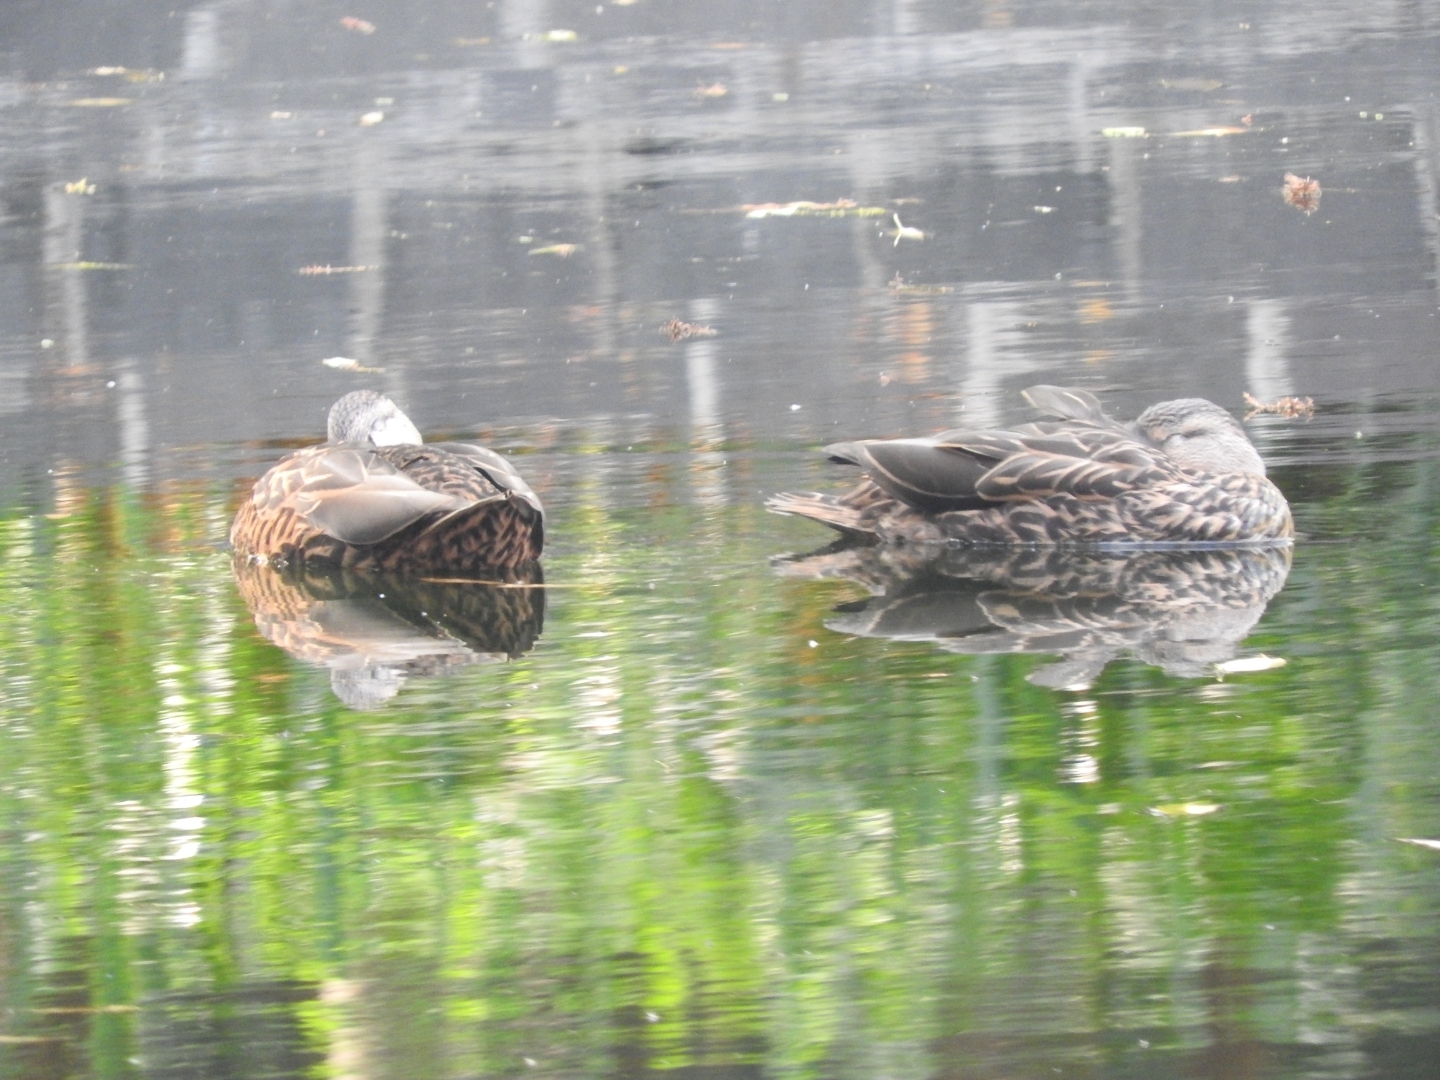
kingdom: Animalia
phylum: Chordata
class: Aves
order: Anseriformes
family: Anatidae
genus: Anas
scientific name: Anas diazi
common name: Mexican duck
